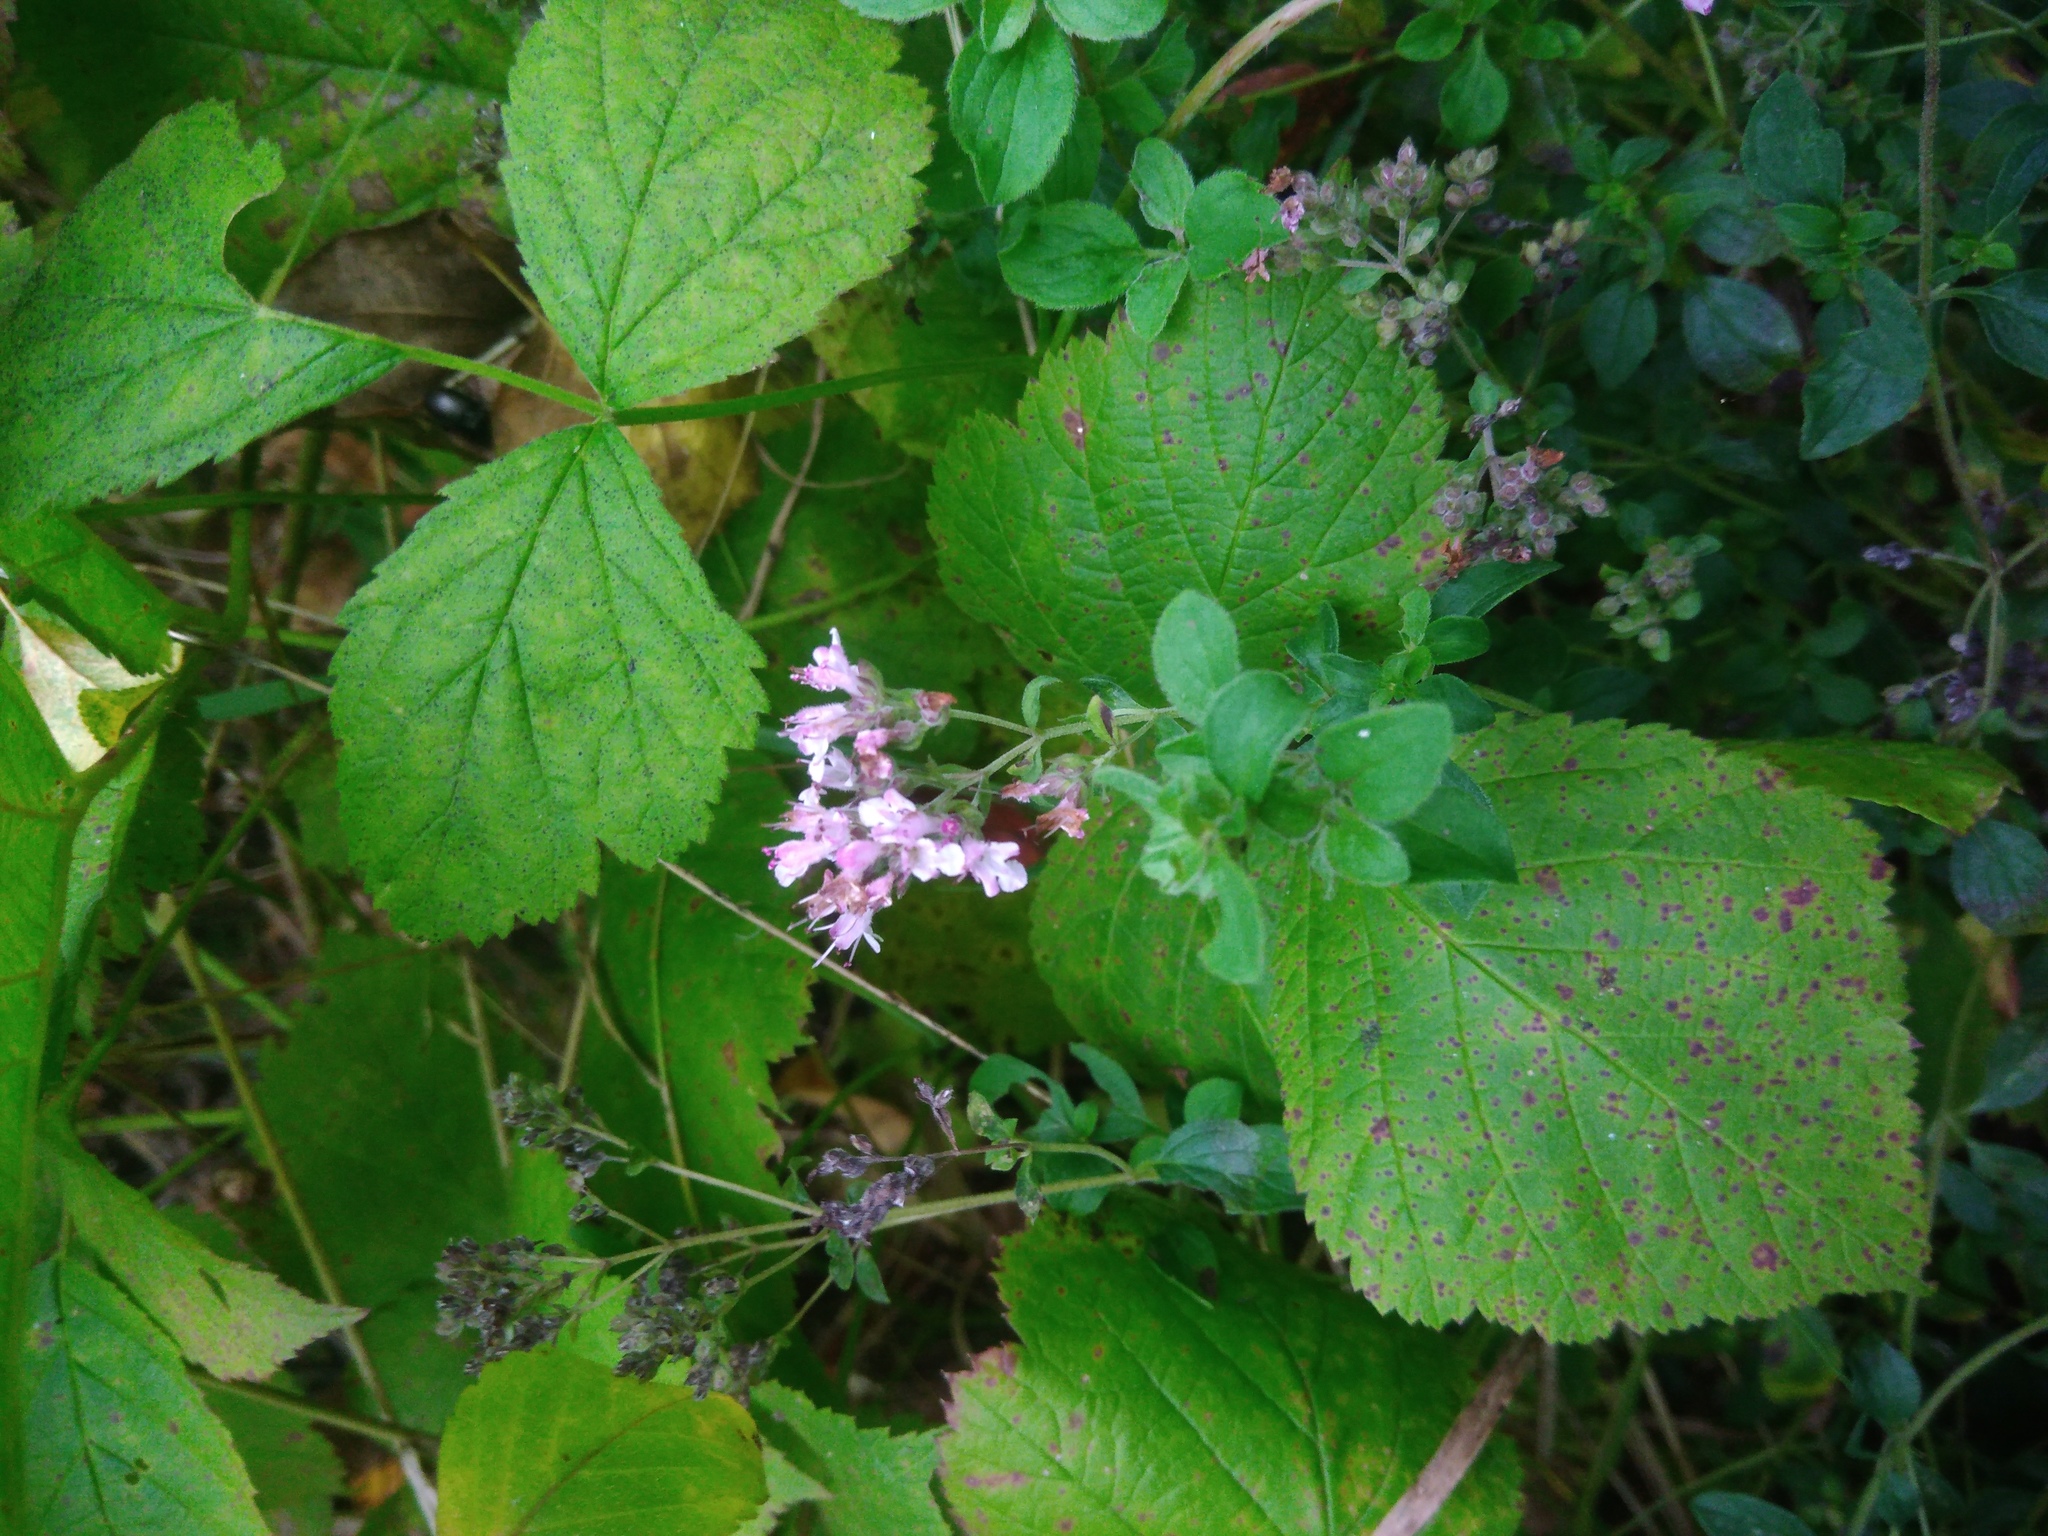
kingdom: Plantae
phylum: Tracheophyta
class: Magnoliopsida
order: Lamiales
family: Lamiaceae
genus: Origanum
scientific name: Origanum vulgare
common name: Wild marjoram
